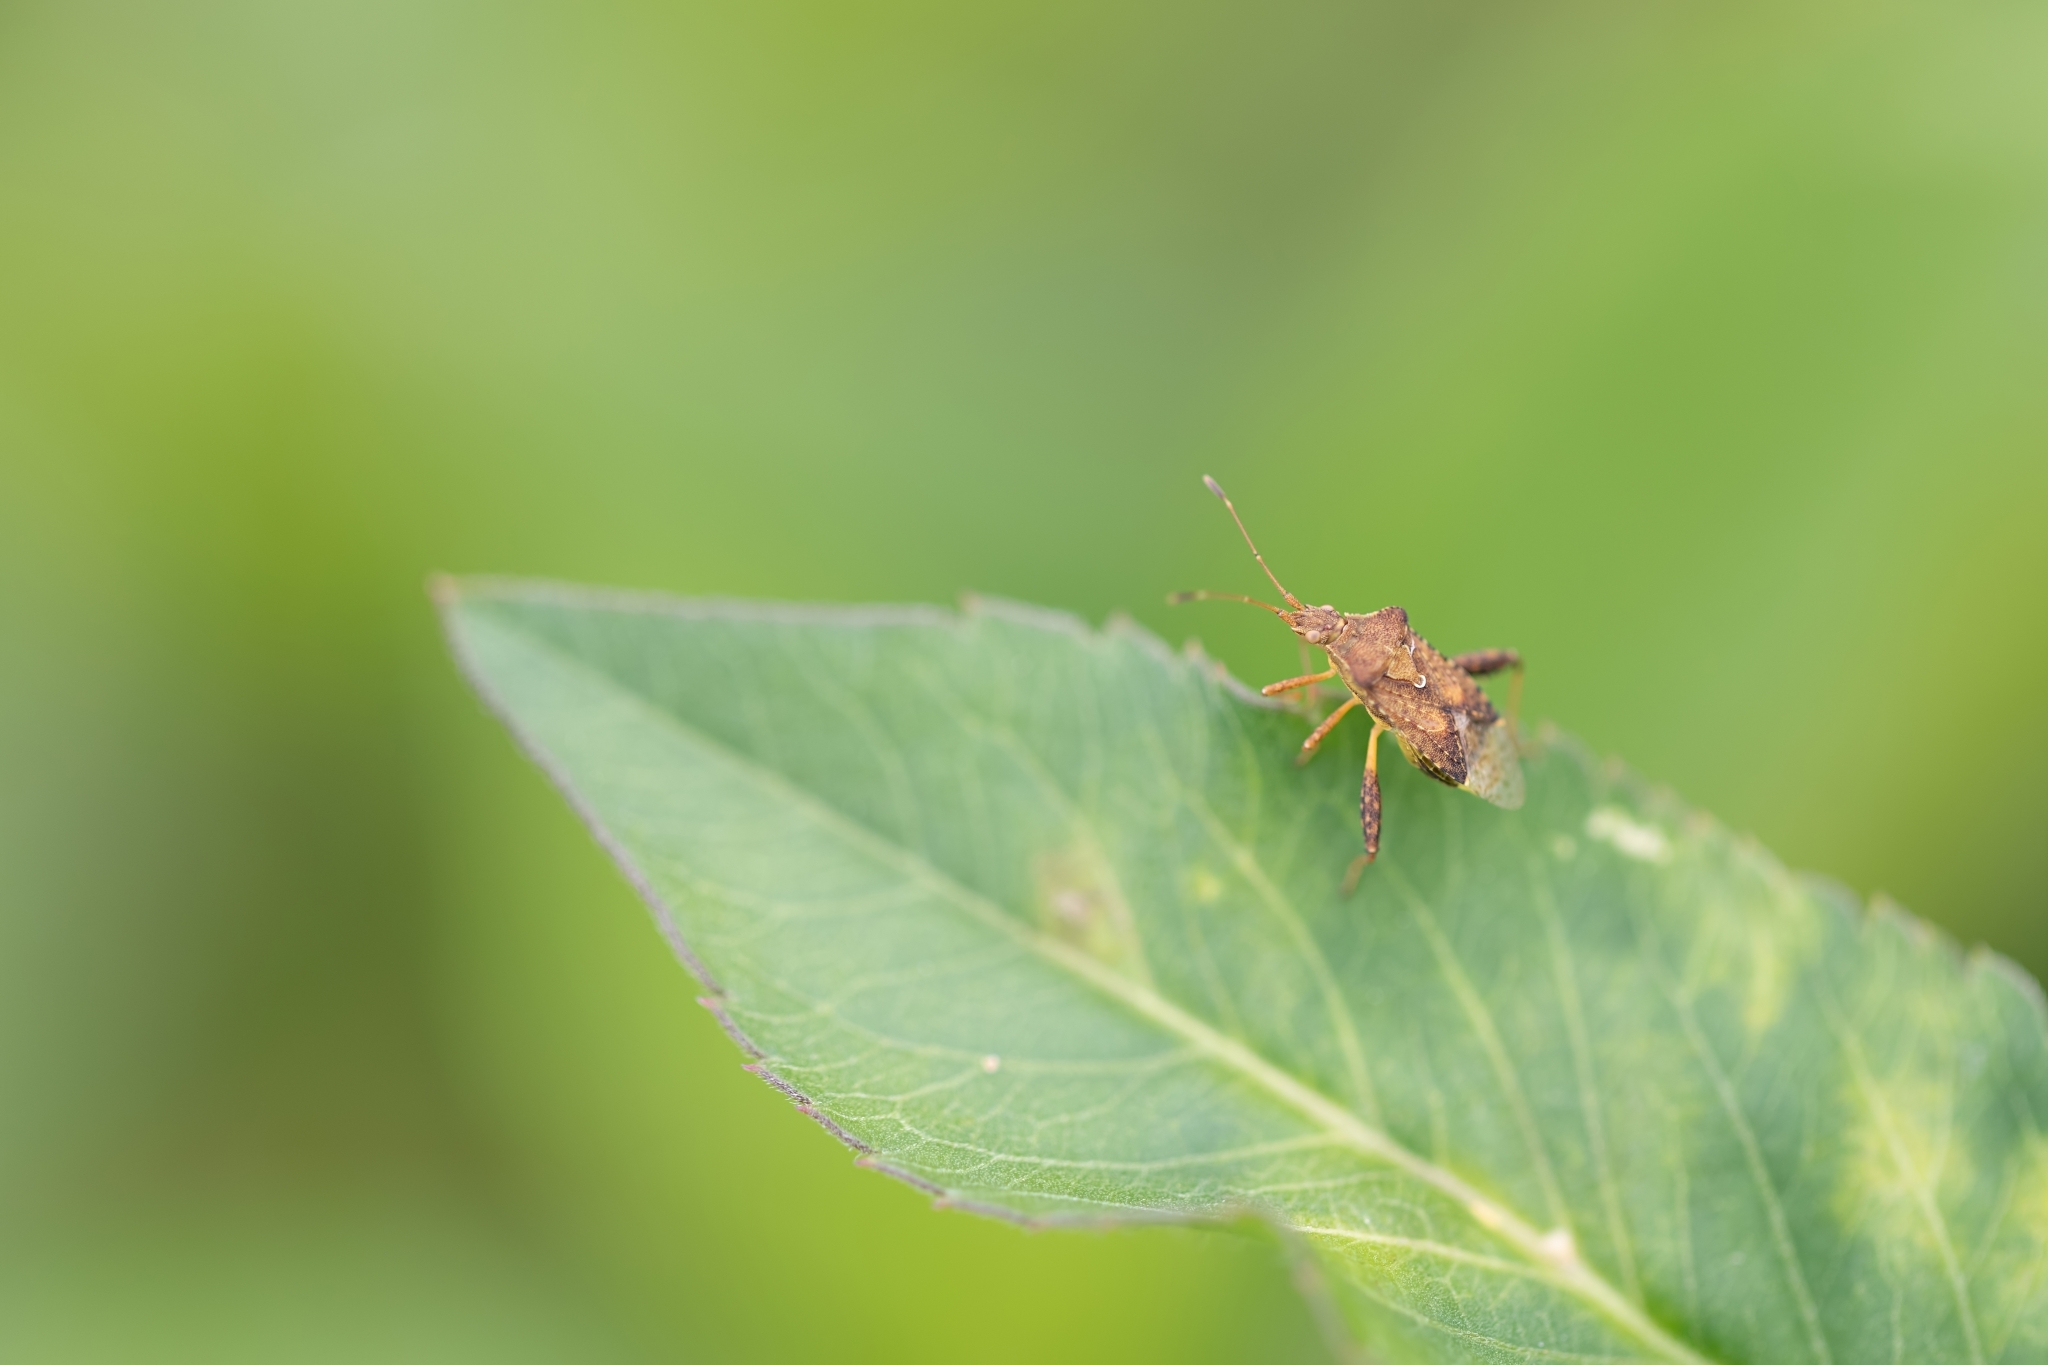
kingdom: Animalia
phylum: Arthropoda
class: Insecta
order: Hemiptera
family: Rhopalidae
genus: Harmostes
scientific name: Harmostes serratus
